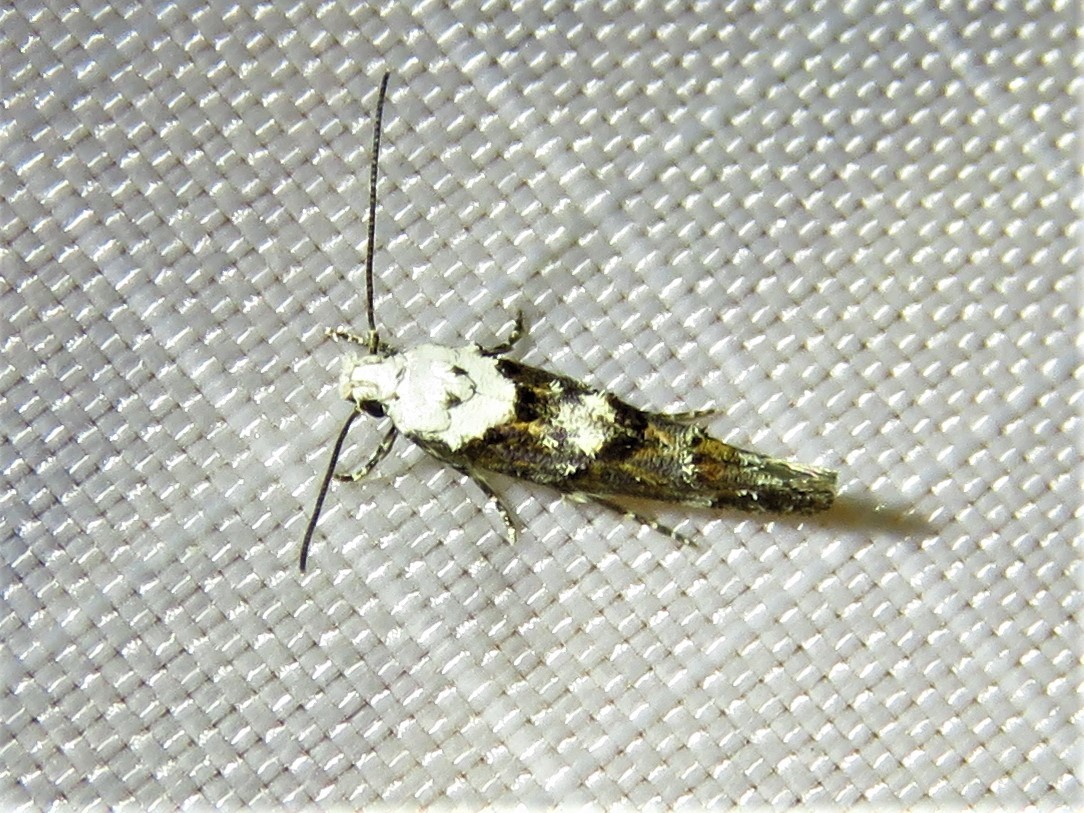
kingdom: Animalia
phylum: Arthropoda
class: Insecta
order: Lepidoptera
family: Momphidae
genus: Mompha
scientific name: Mompha albocapitella
